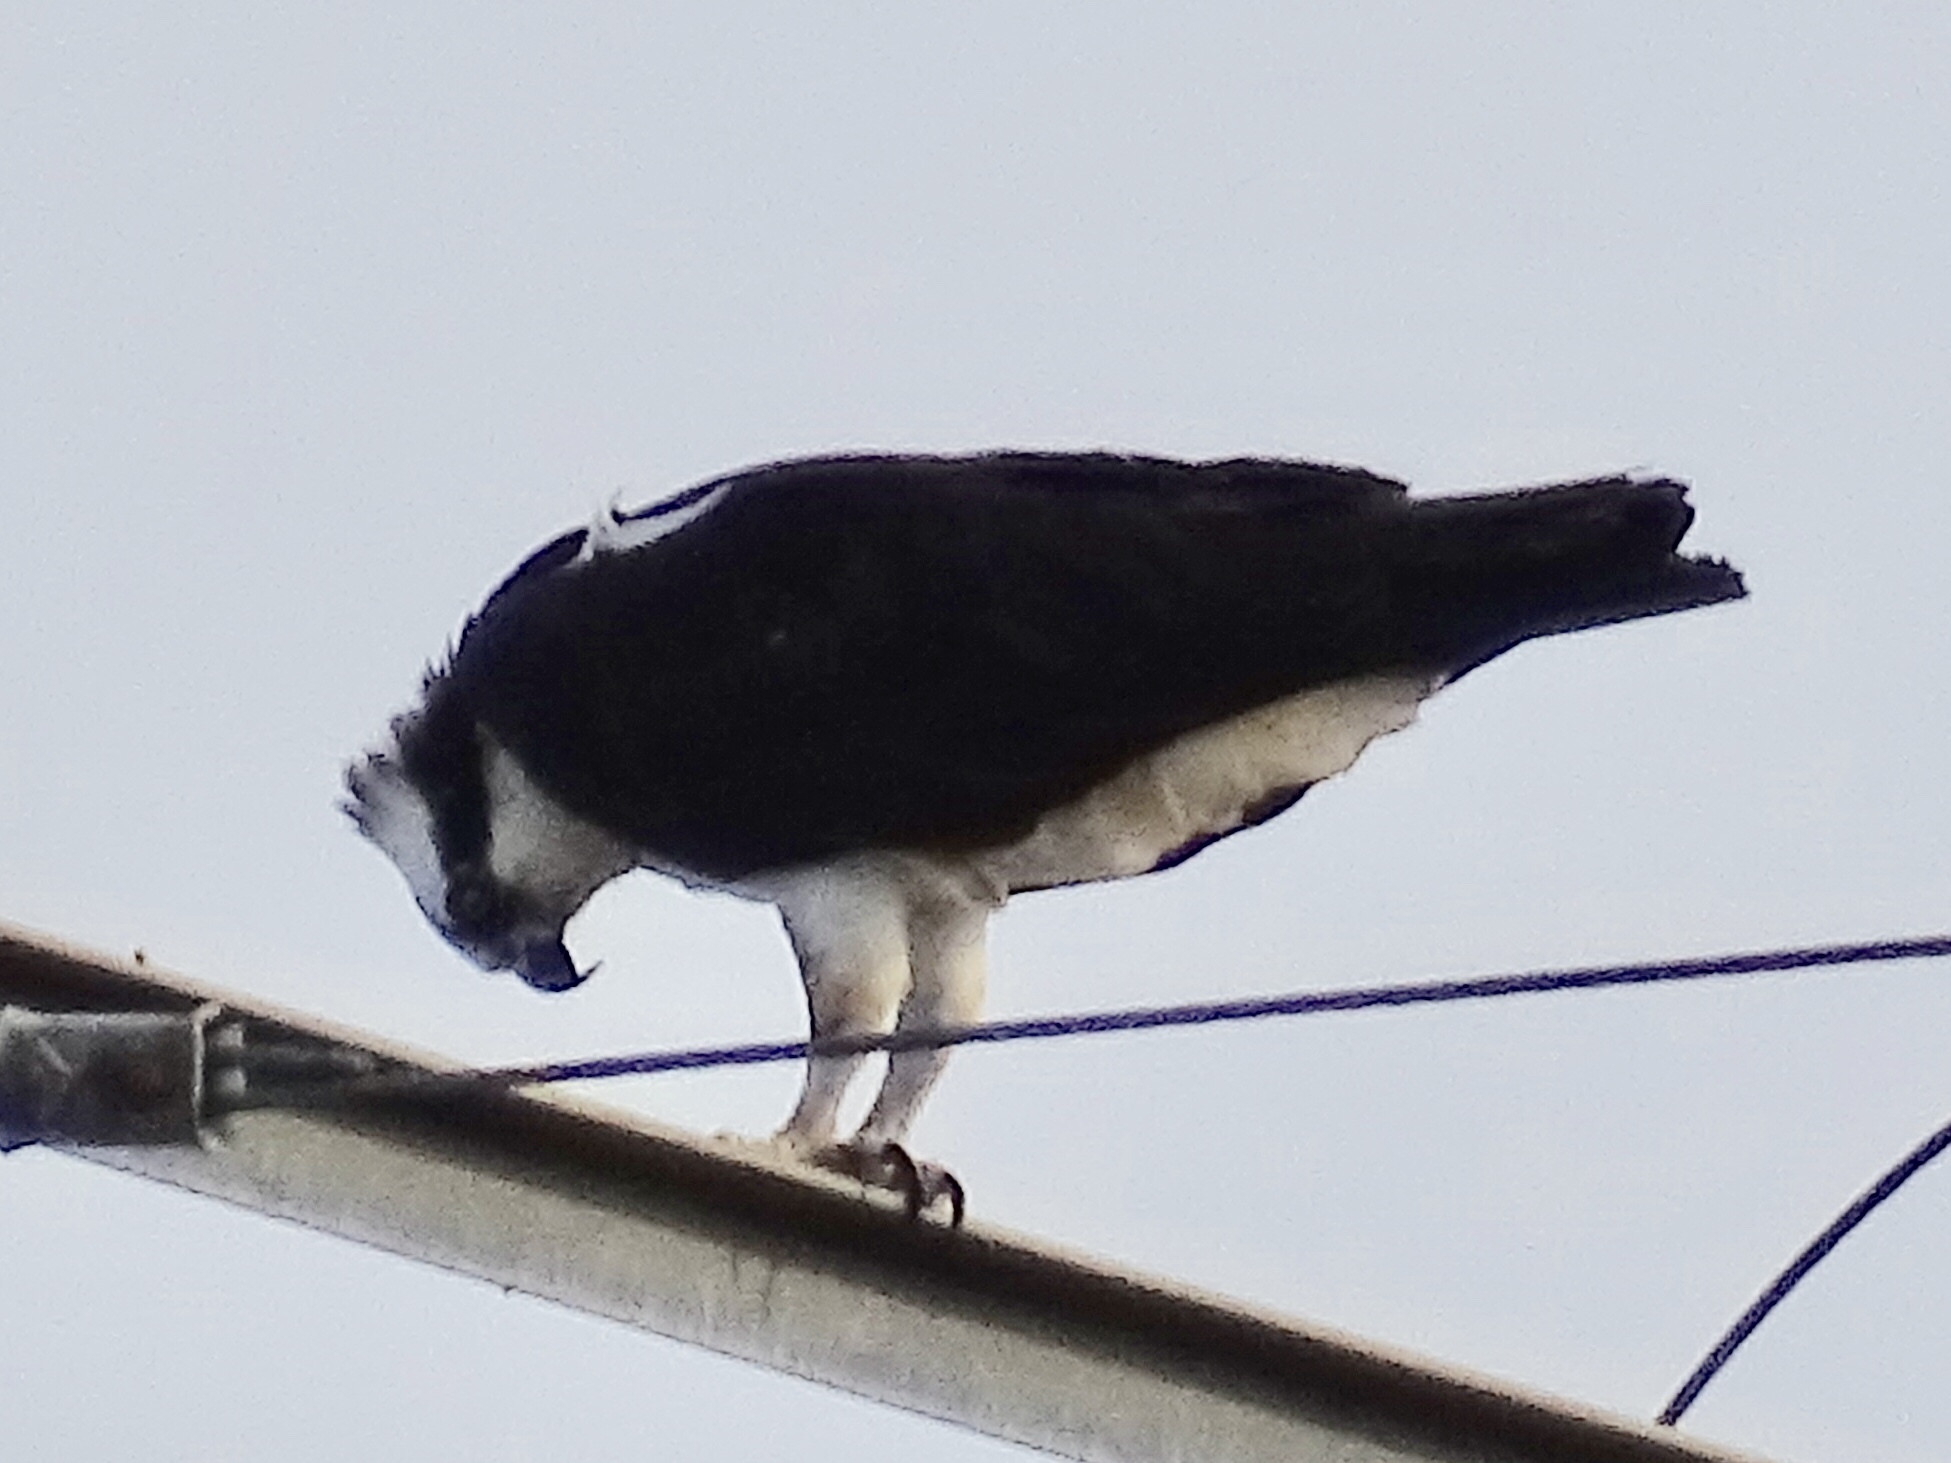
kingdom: Animalia
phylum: Chordata
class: Aves
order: Accipitriformes
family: Pandionidae
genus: Pandion
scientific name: Pandion haliaetus
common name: Osprey
